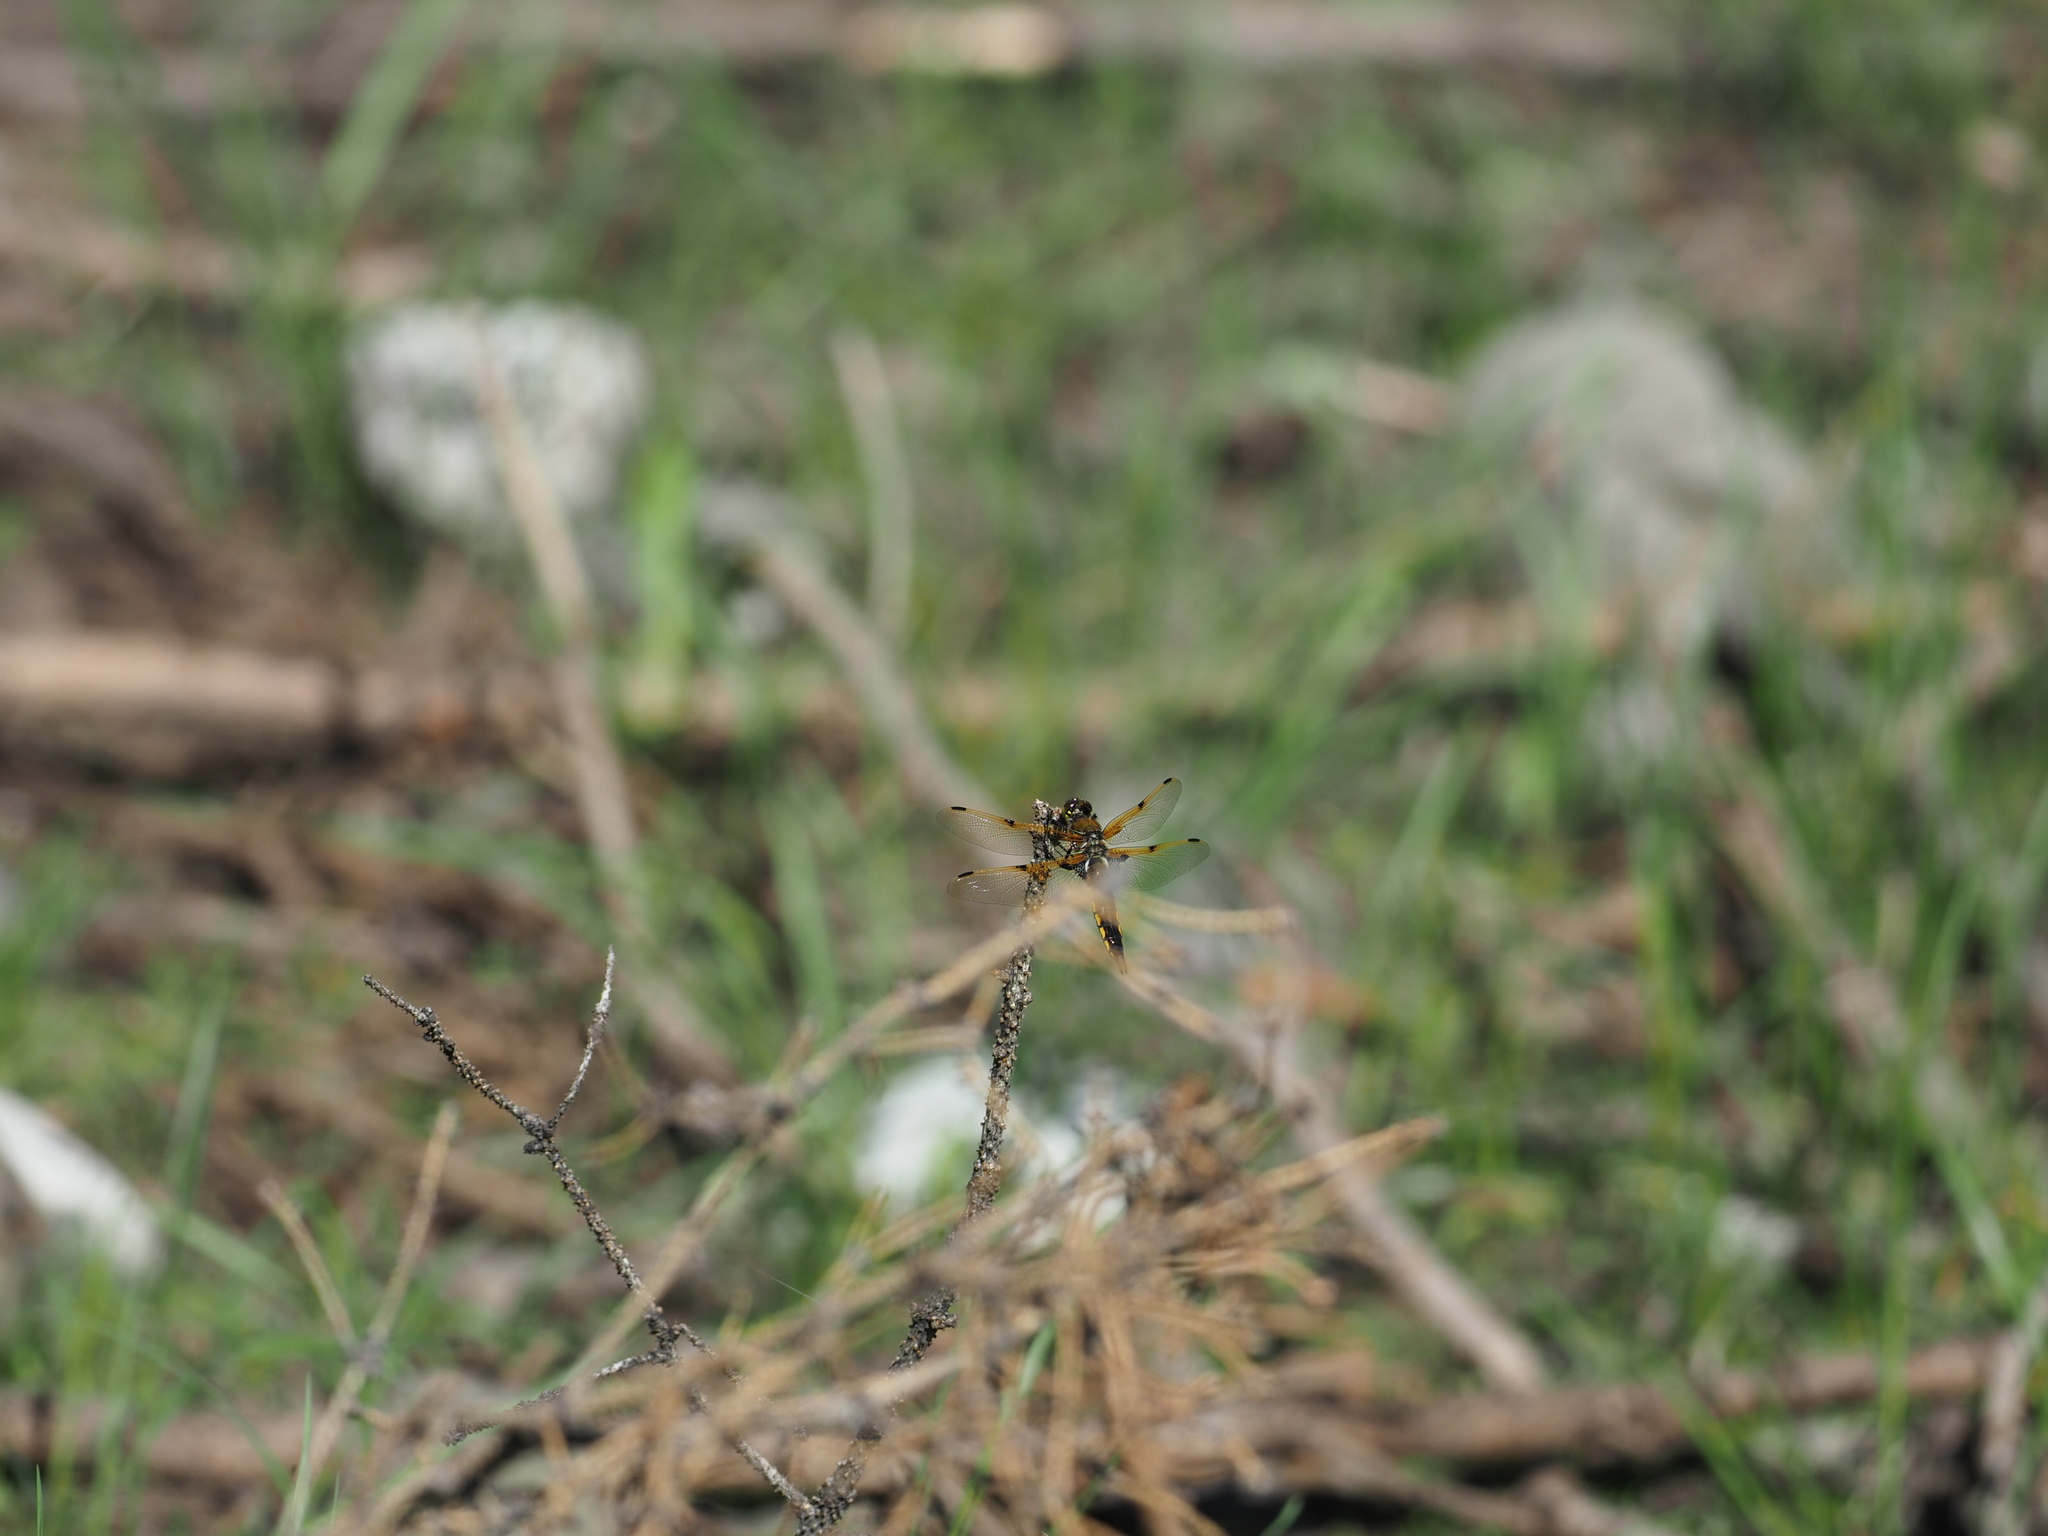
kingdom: Animalia
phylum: Arthropoda
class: Insecta
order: Odonata
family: Libellulidae
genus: Libellula
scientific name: Libellula quadrimaculata
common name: Four-spotted chaser
